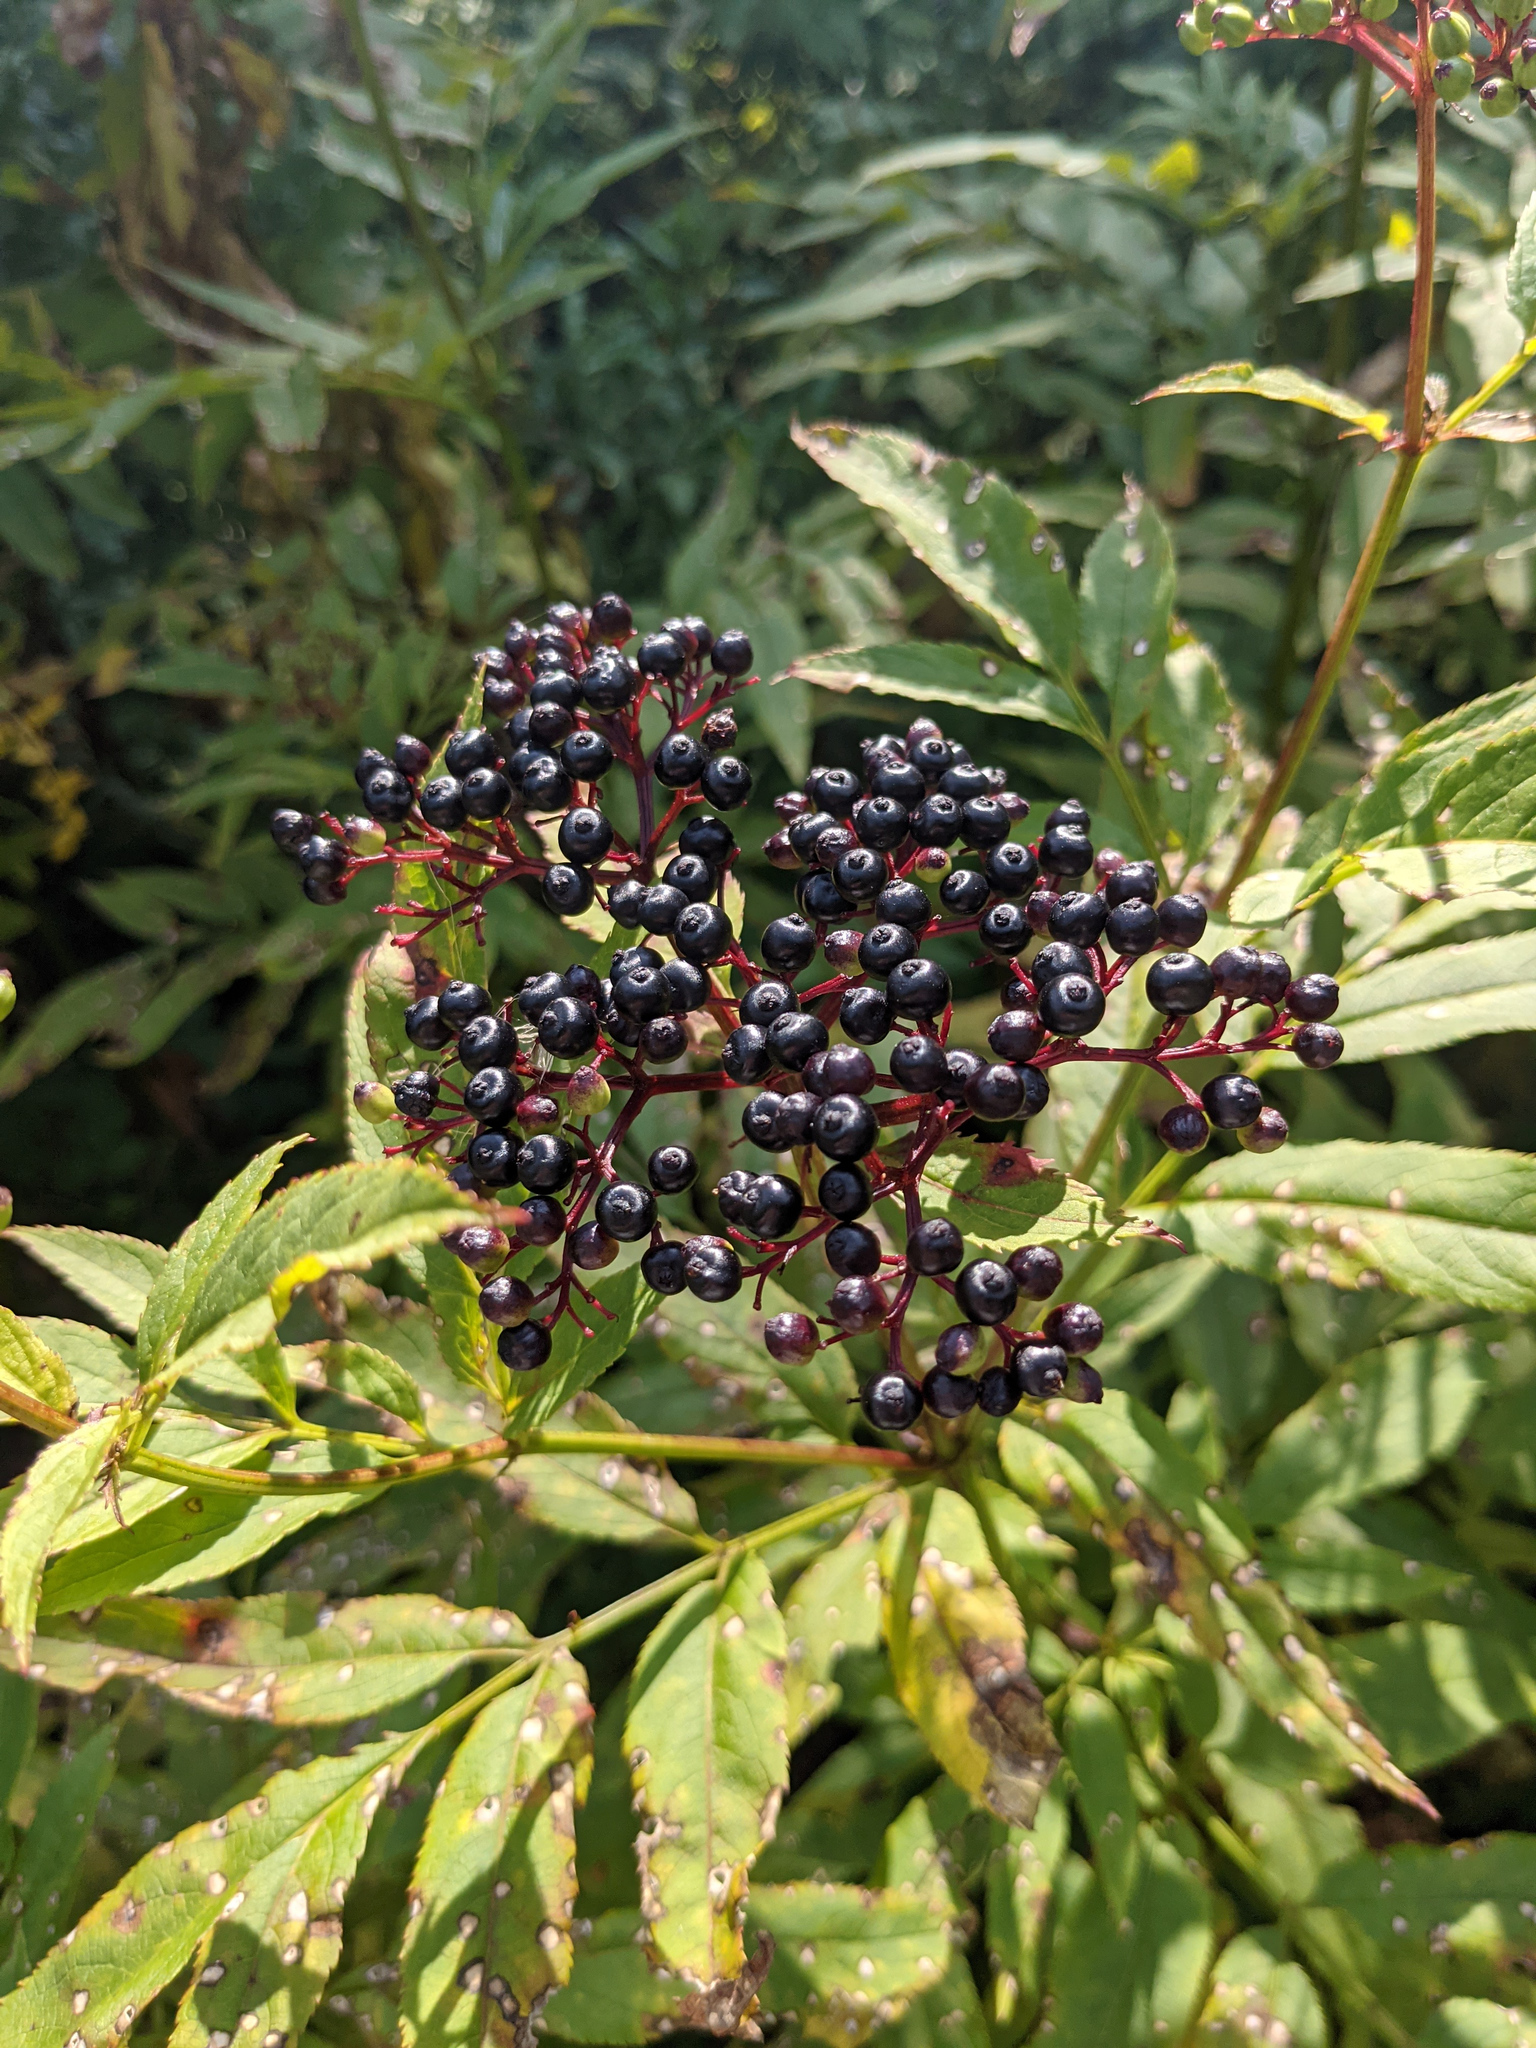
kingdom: Plantae
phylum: Tracheophyta
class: Magnoliopsida
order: Dipsacales
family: Viburnaceae
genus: Sambucus
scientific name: Sambucus ebulus
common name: Dwarf elder
